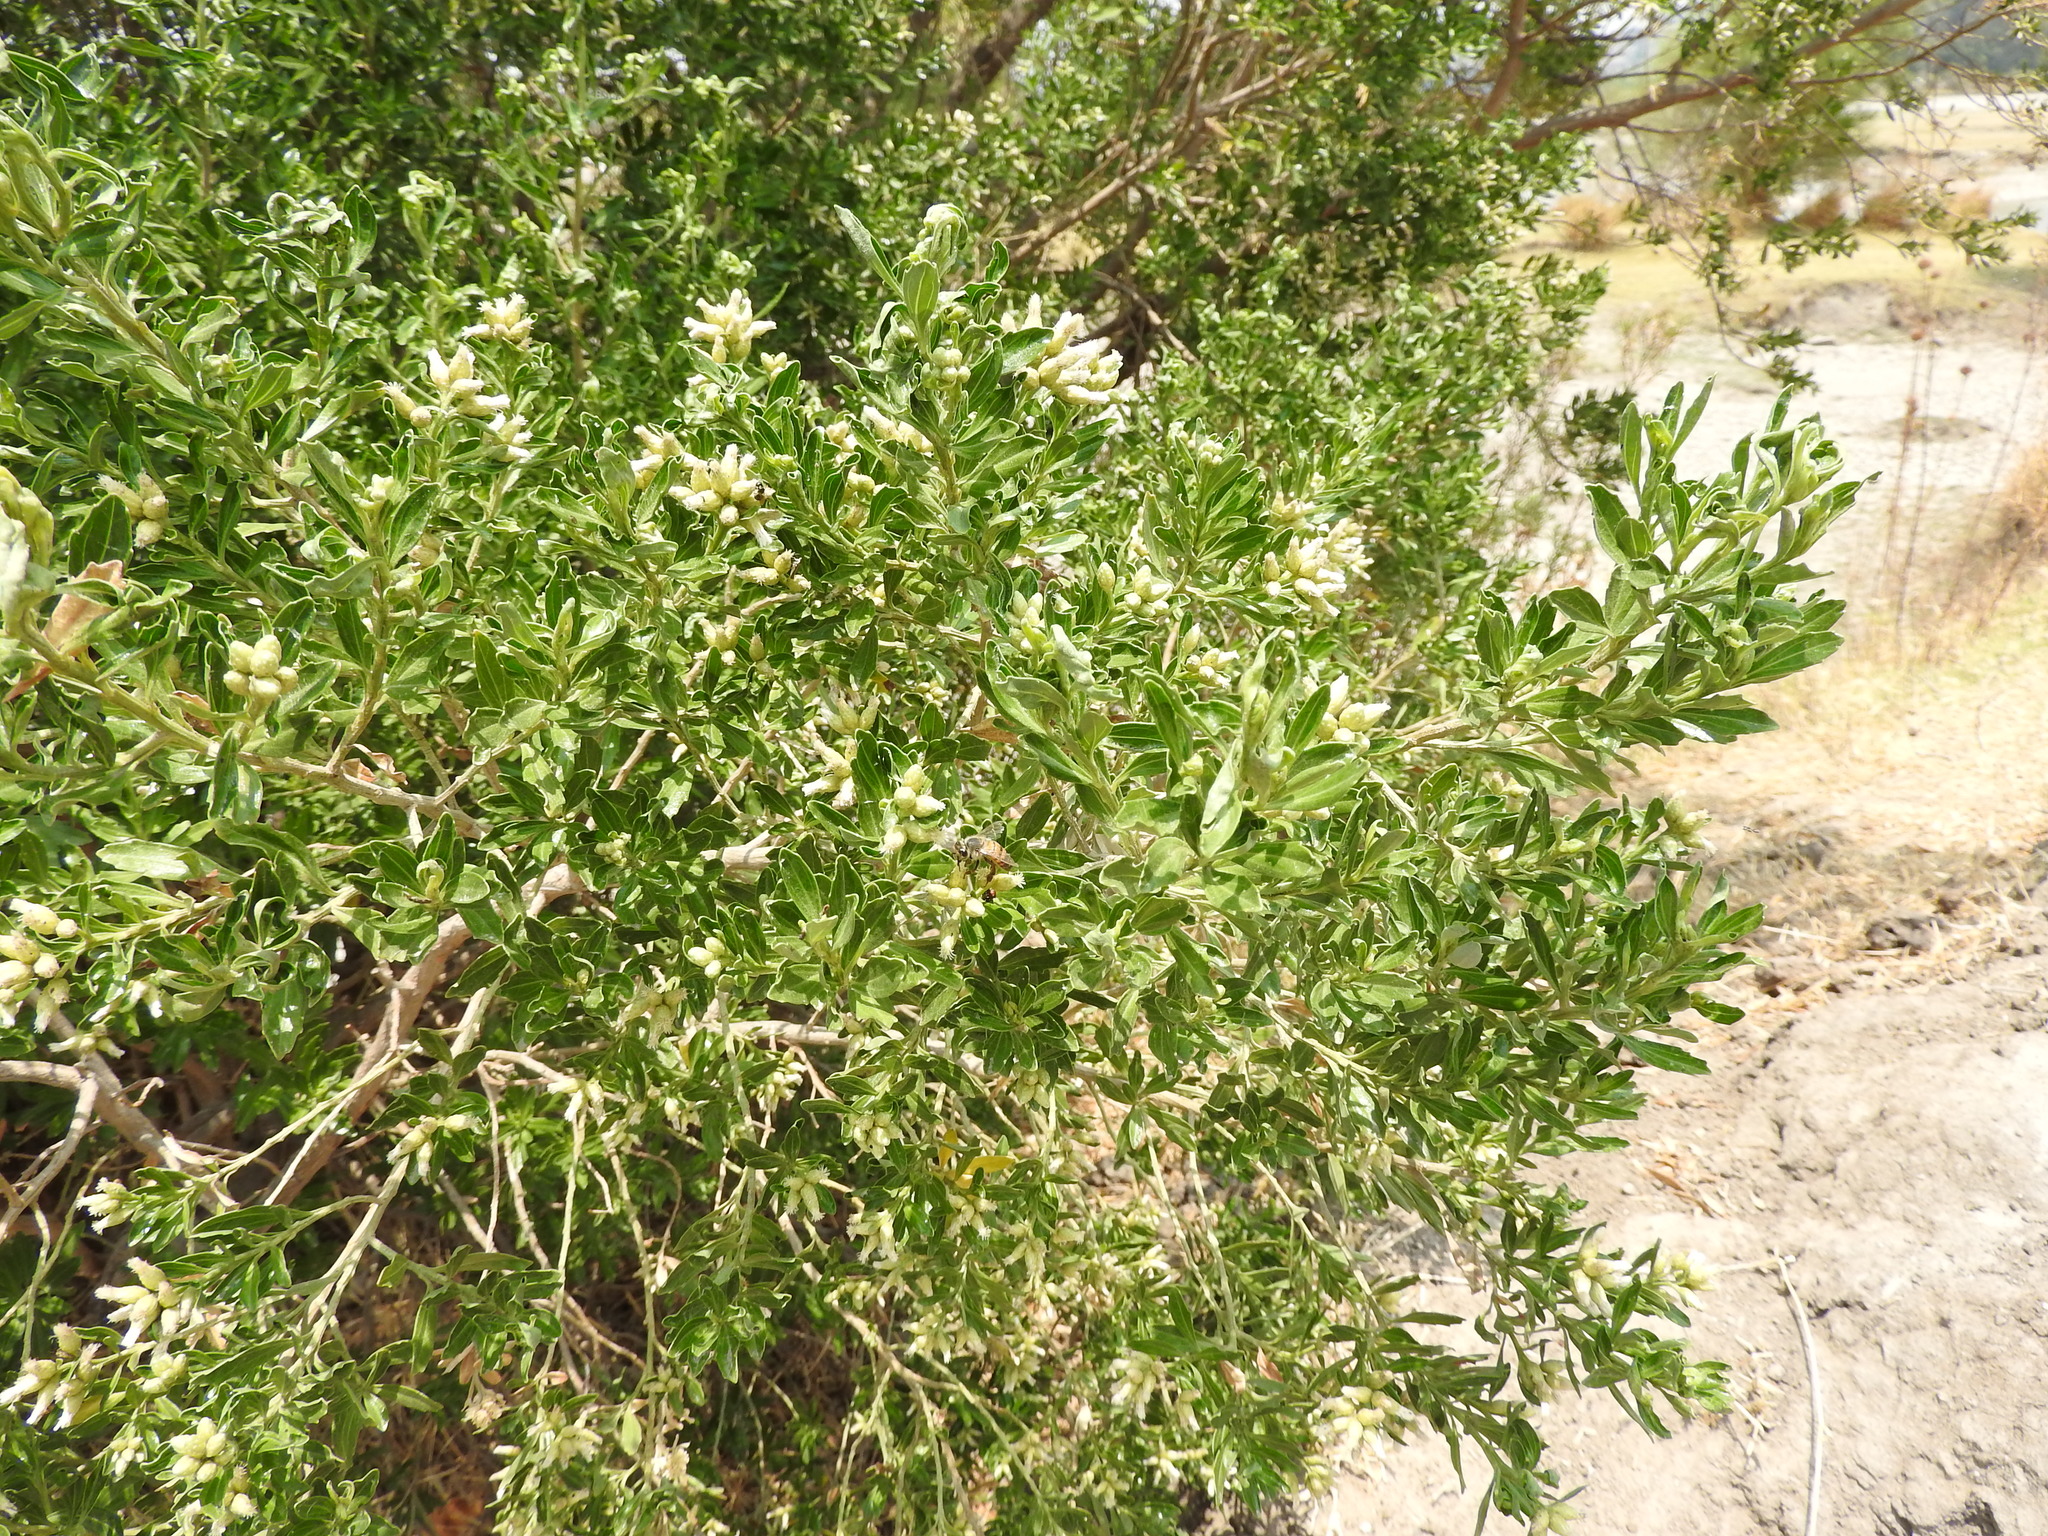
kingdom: Animalia
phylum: Arthropoda
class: Insecta
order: Hymenoptera
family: Apidae
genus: Apis
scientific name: Apis mellifera
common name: Honey bee
